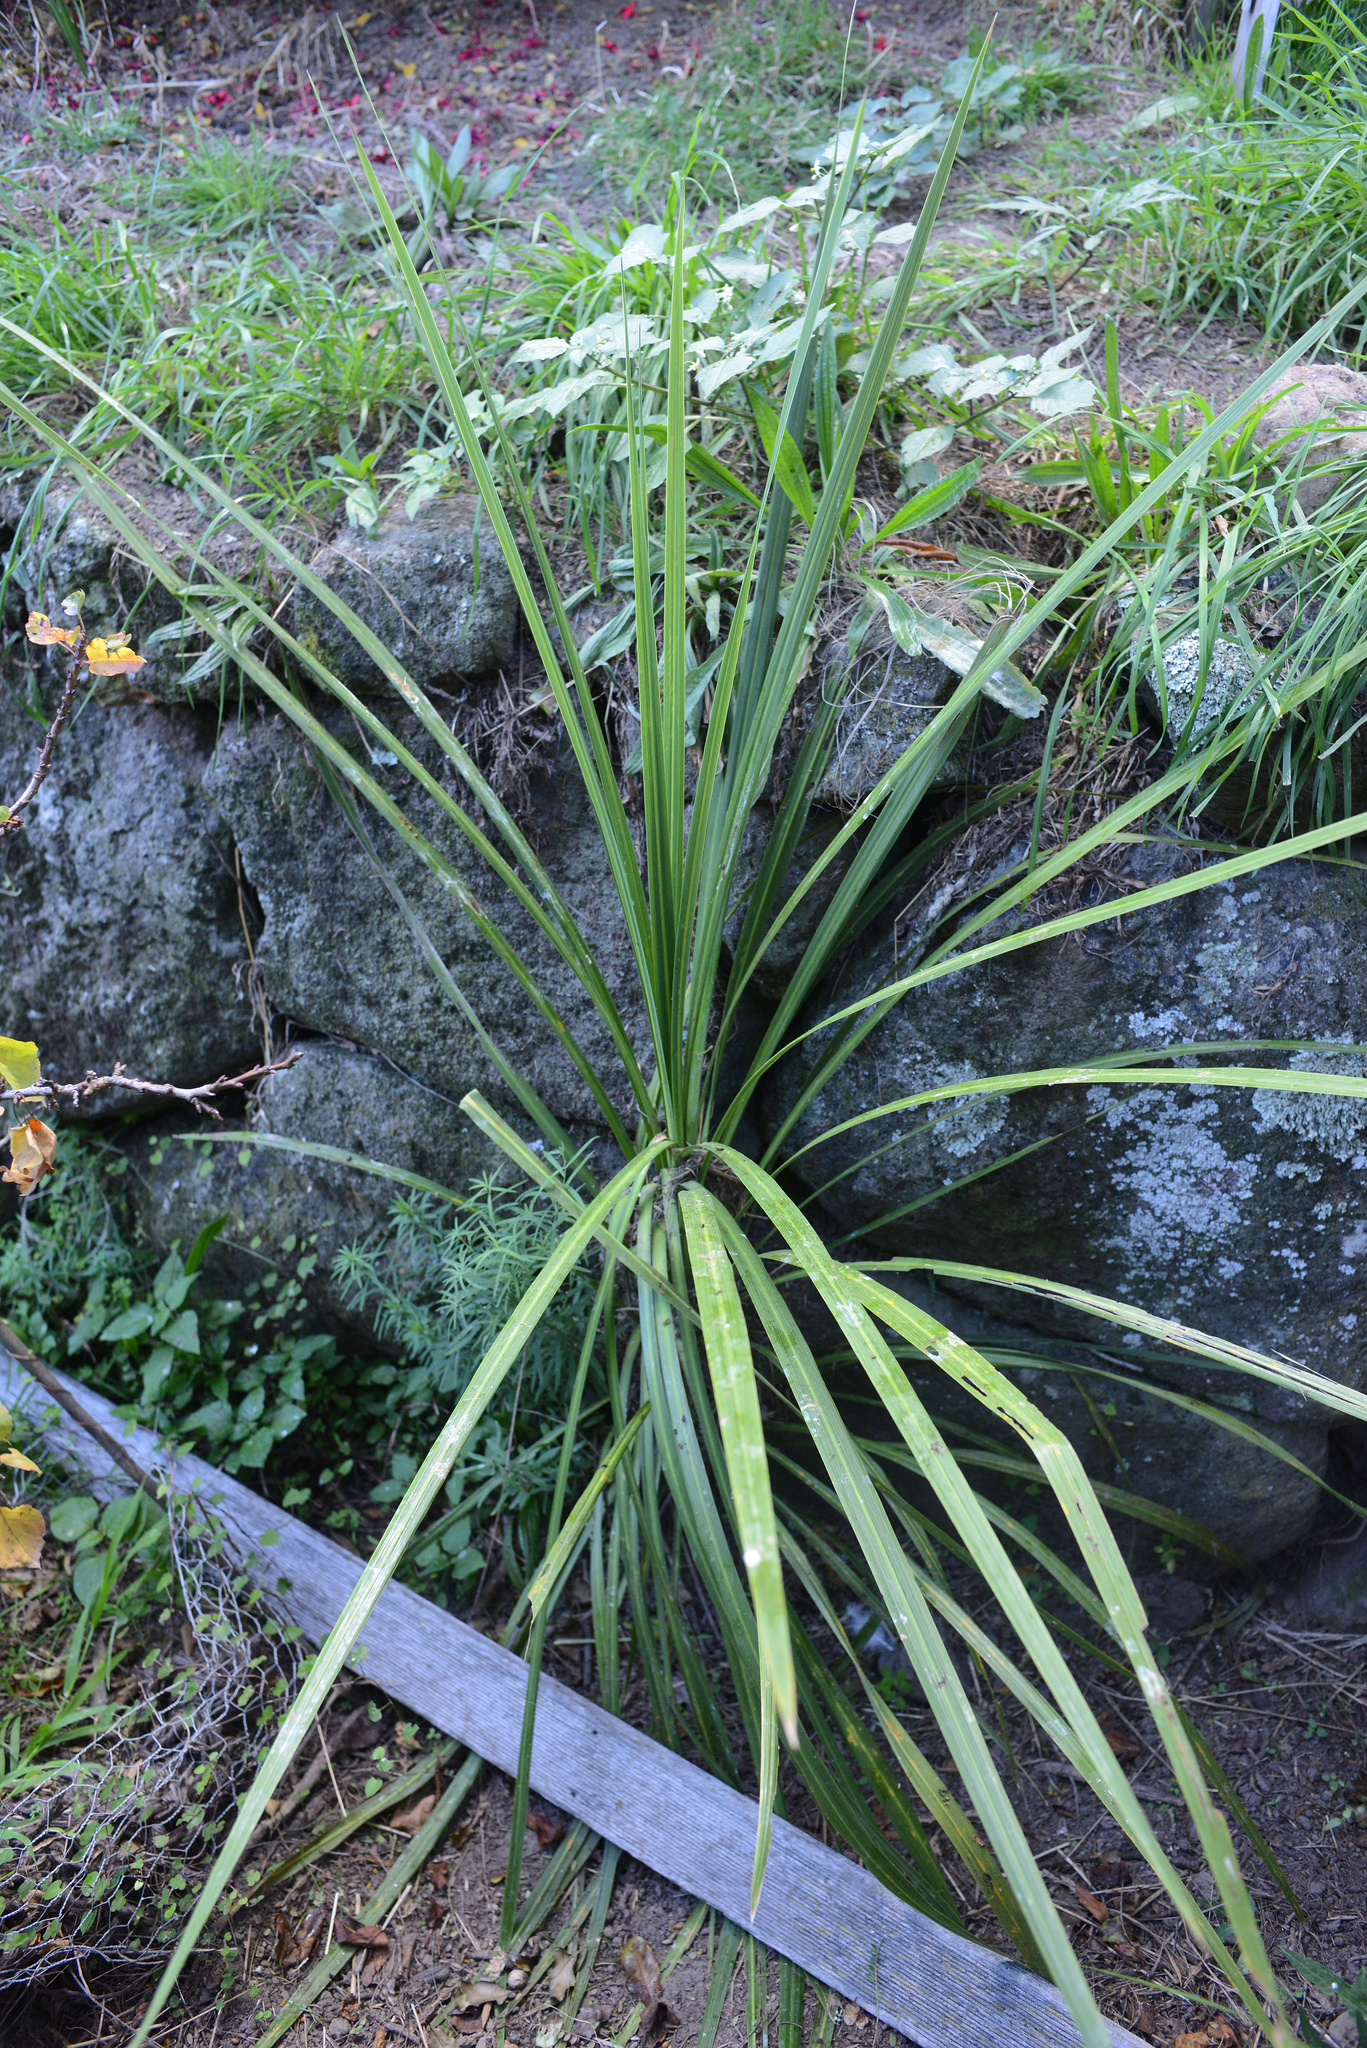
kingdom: Plantae
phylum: Tracheophyta
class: Liliopsida
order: Asparagales
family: Asparagaceae
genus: Cordyline
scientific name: Cordyline australis
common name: Cabbage-palm
